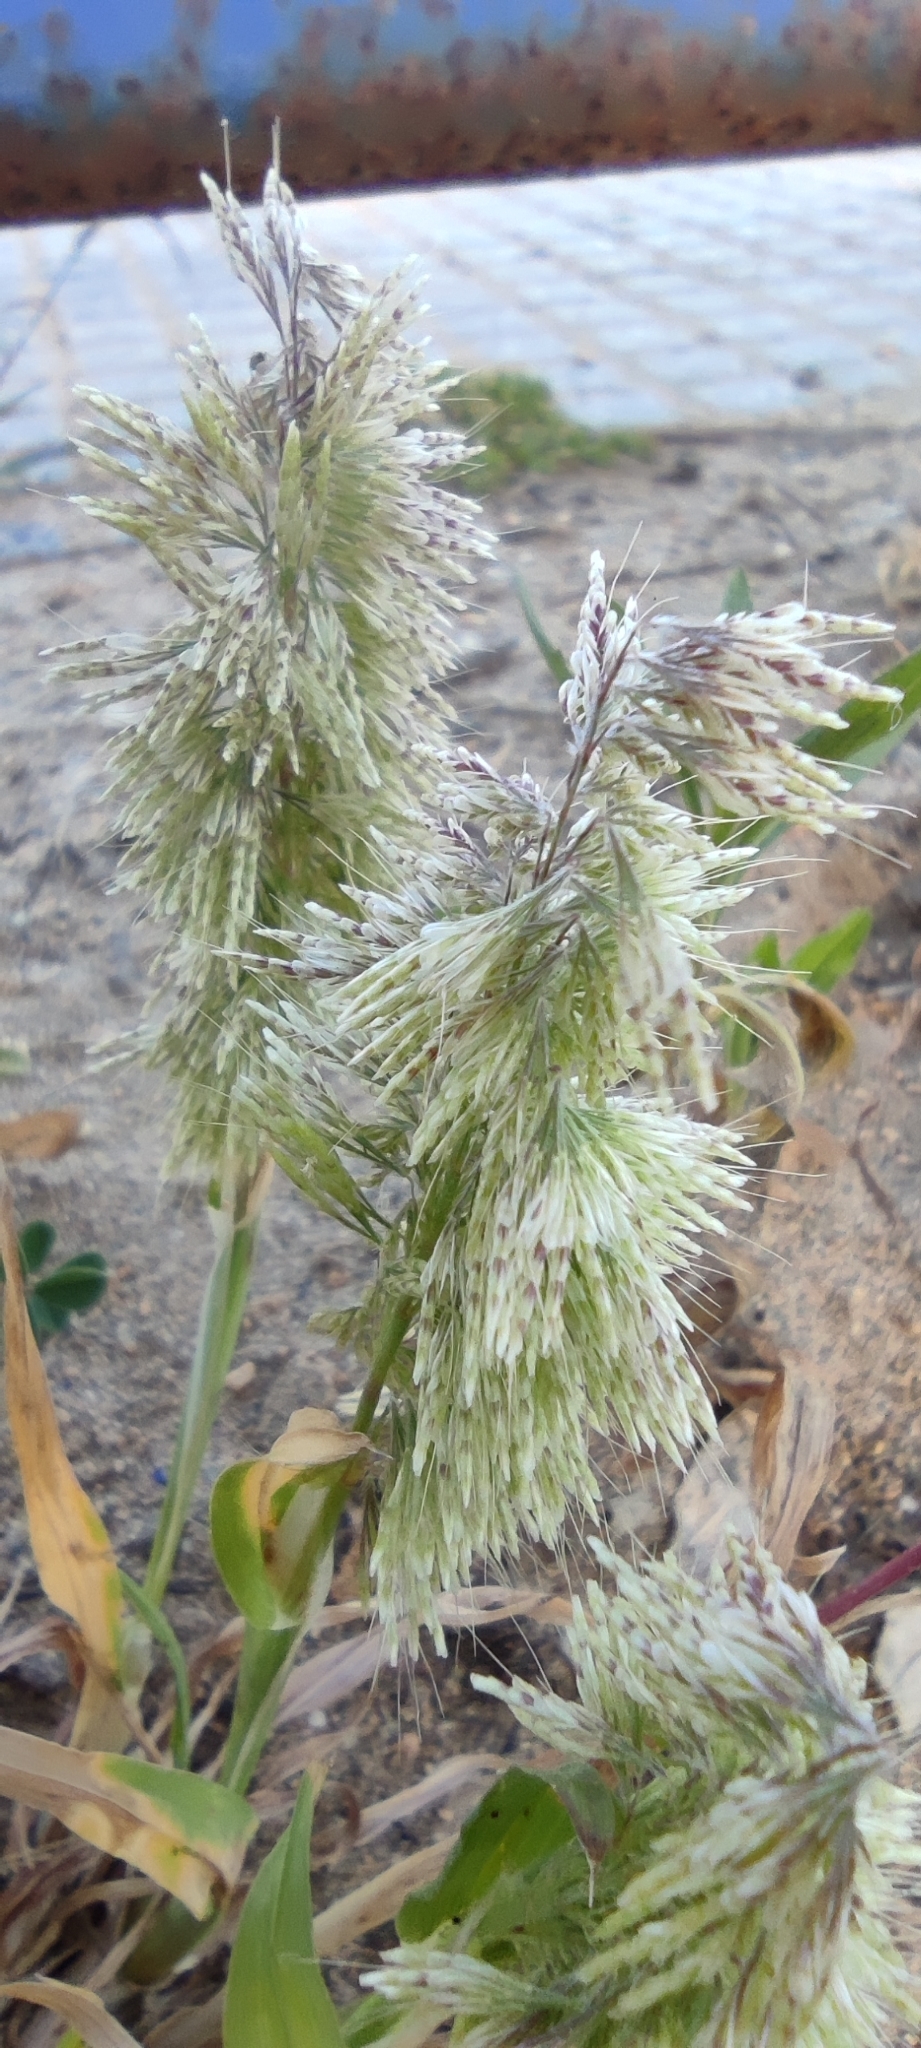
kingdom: Plantae
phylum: Tracheophyta
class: Liliopsida
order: Poales
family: Poaceae
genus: Lamarckia
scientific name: Lamarckia aurea
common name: Golden dog's-tail
